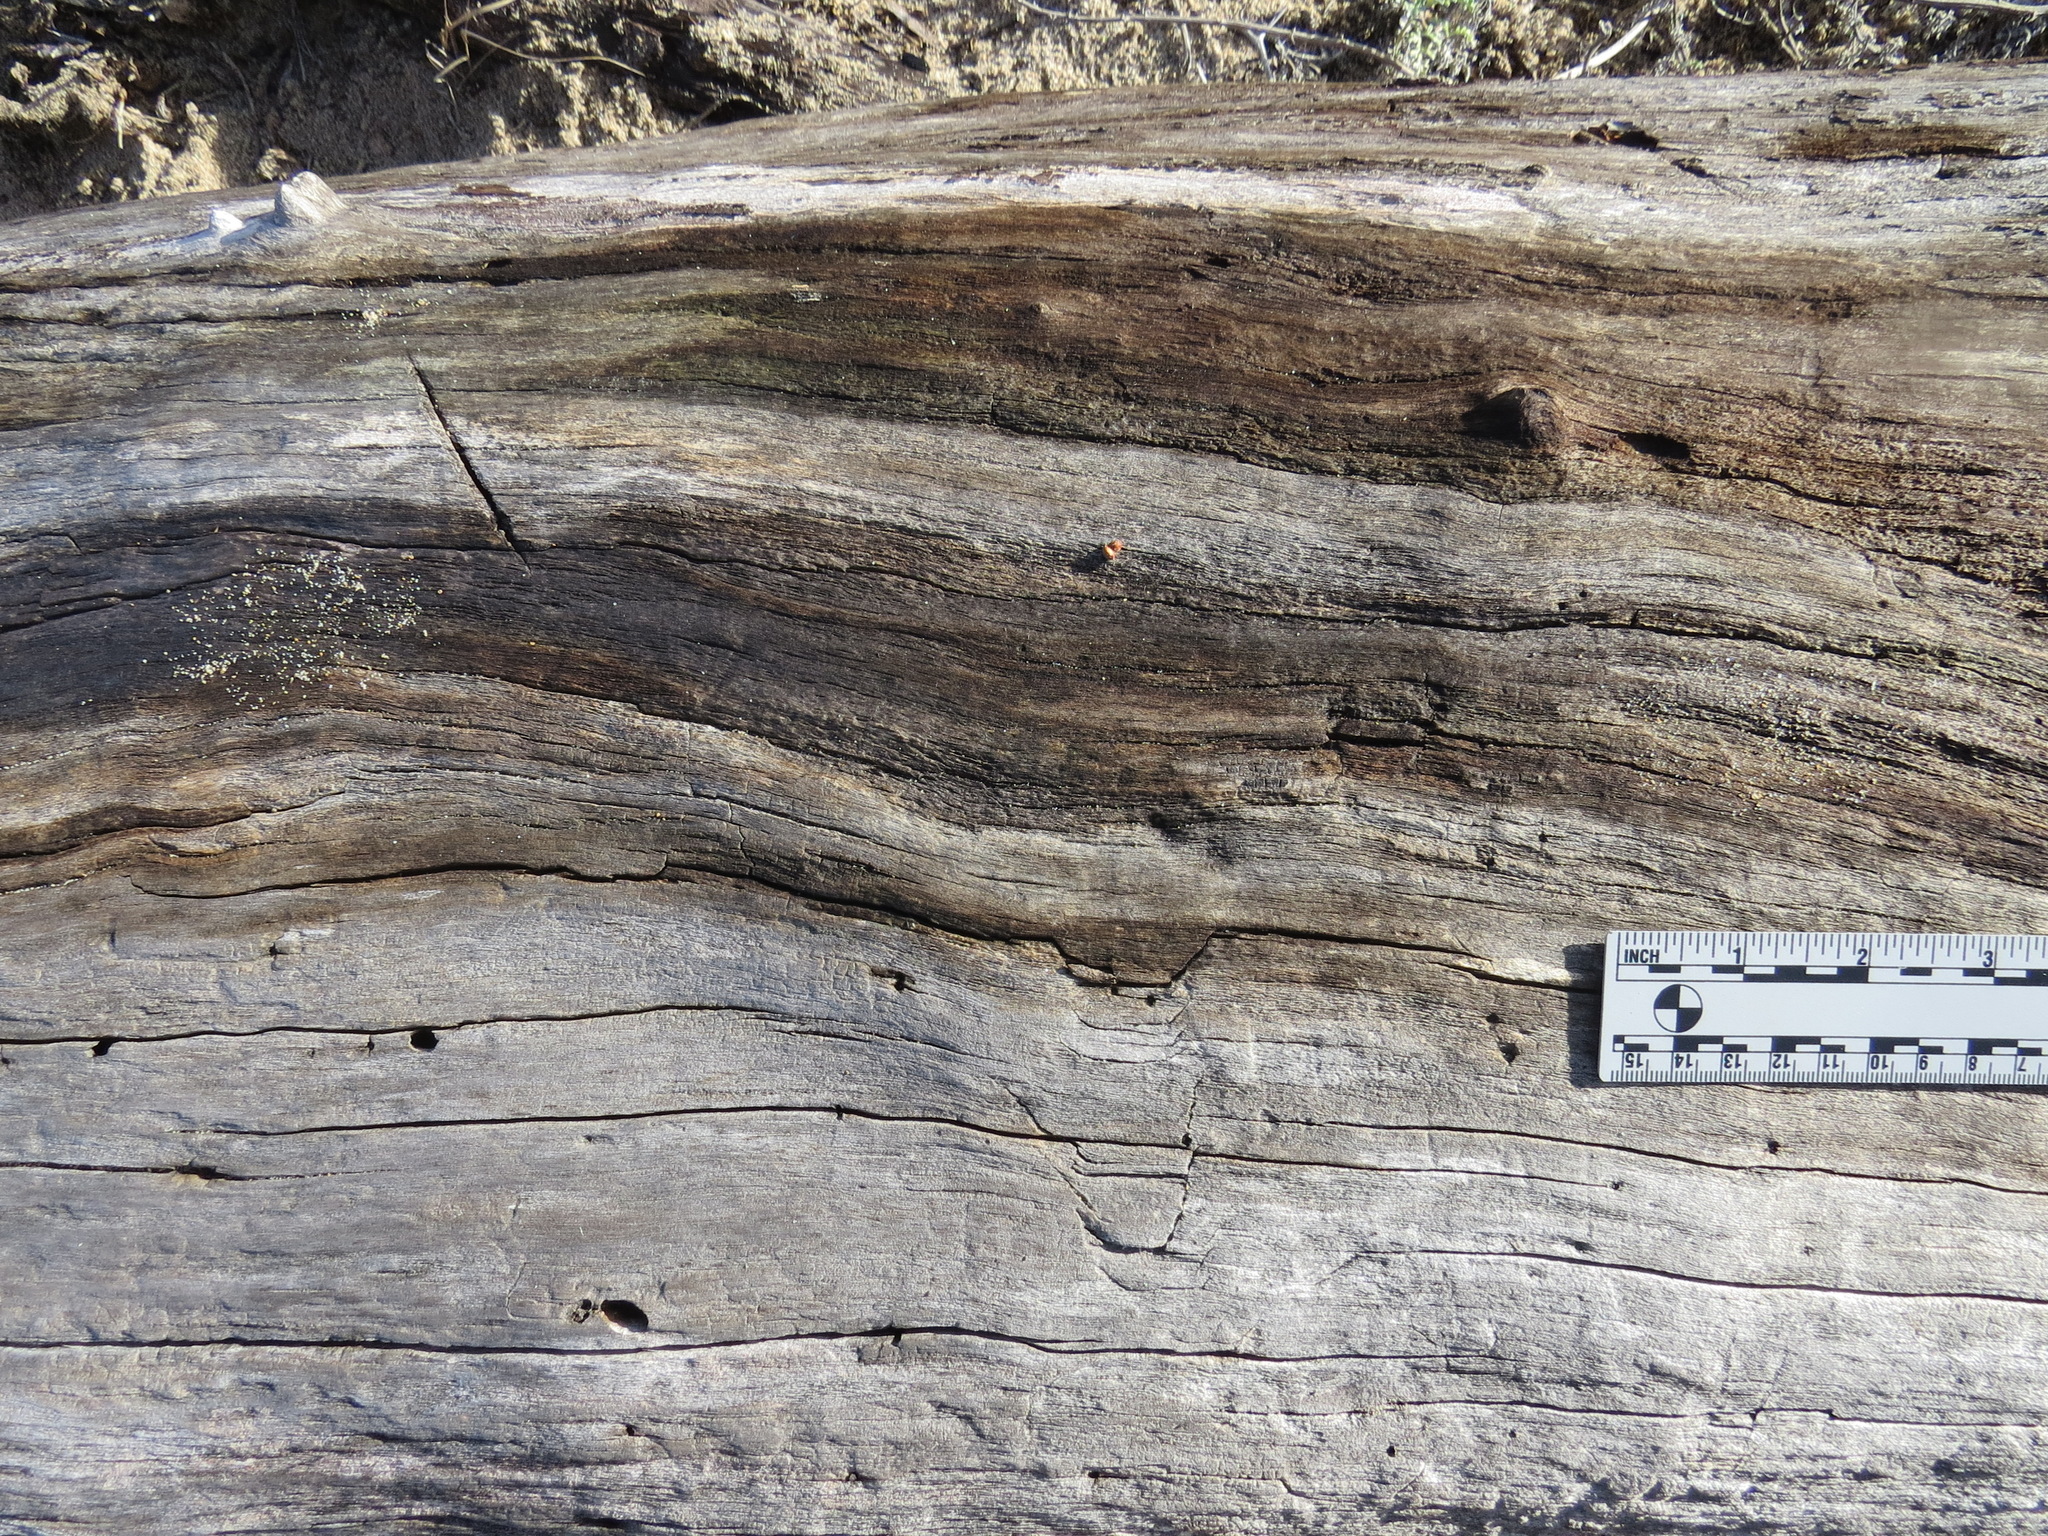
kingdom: Animalia
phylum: Chordata
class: Mammalia
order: Carnivora
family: Canidae
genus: Urocyon
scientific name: Urocyon cinereoargenteus
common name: Gray fox
